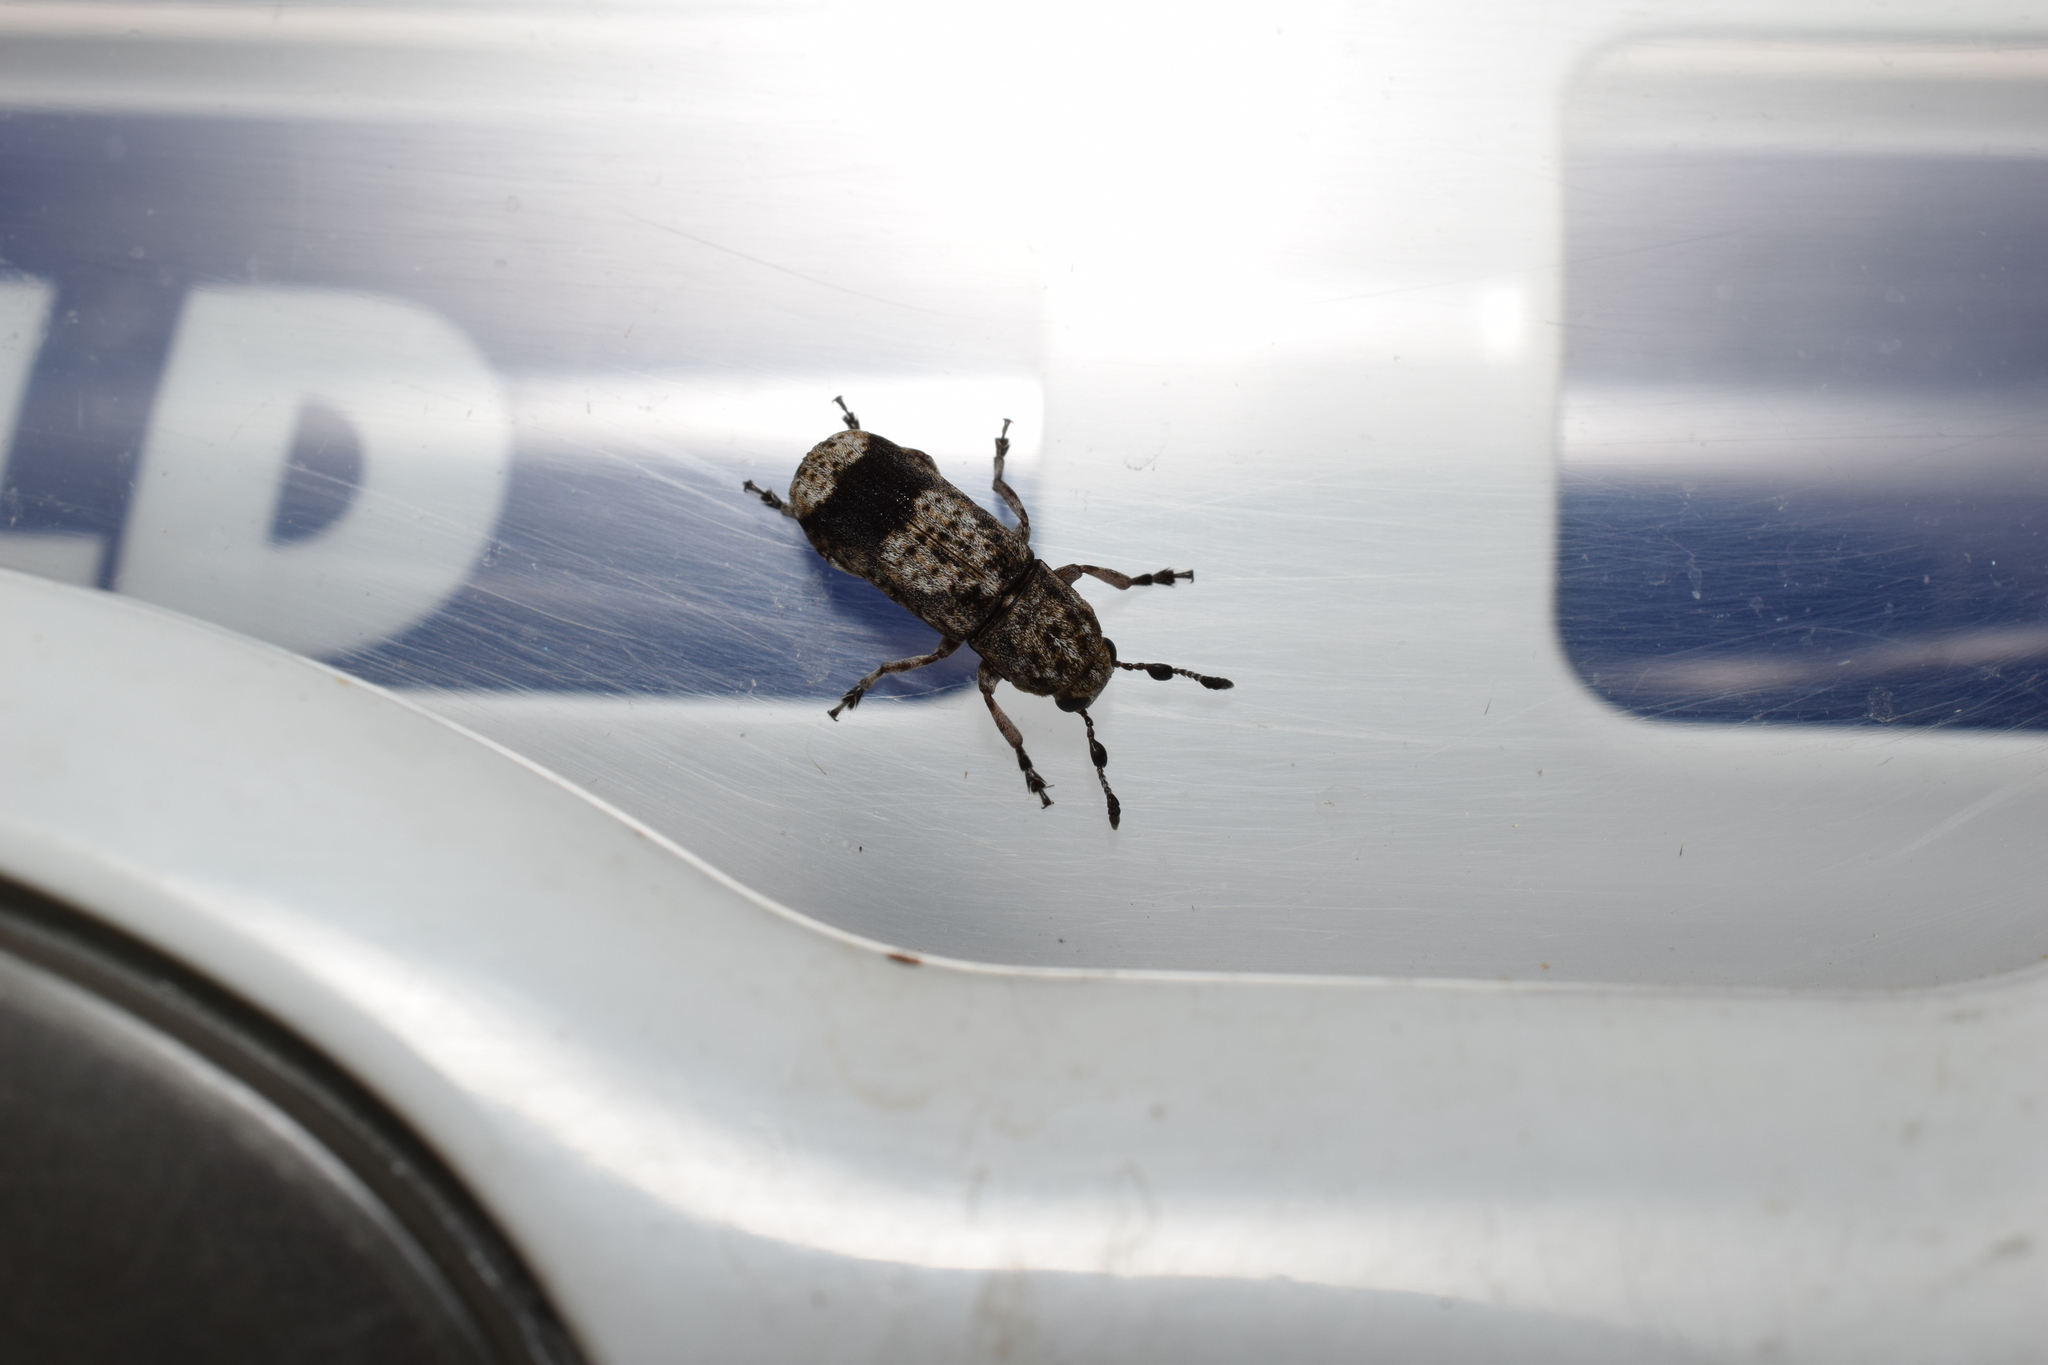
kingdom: Animalia
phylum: Arthropoda
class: Insecta
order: Coleoptera
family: Anthribidae
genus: Ozotomerus
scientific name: Ozotomerus japonicus
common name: Old world fungus weevil
